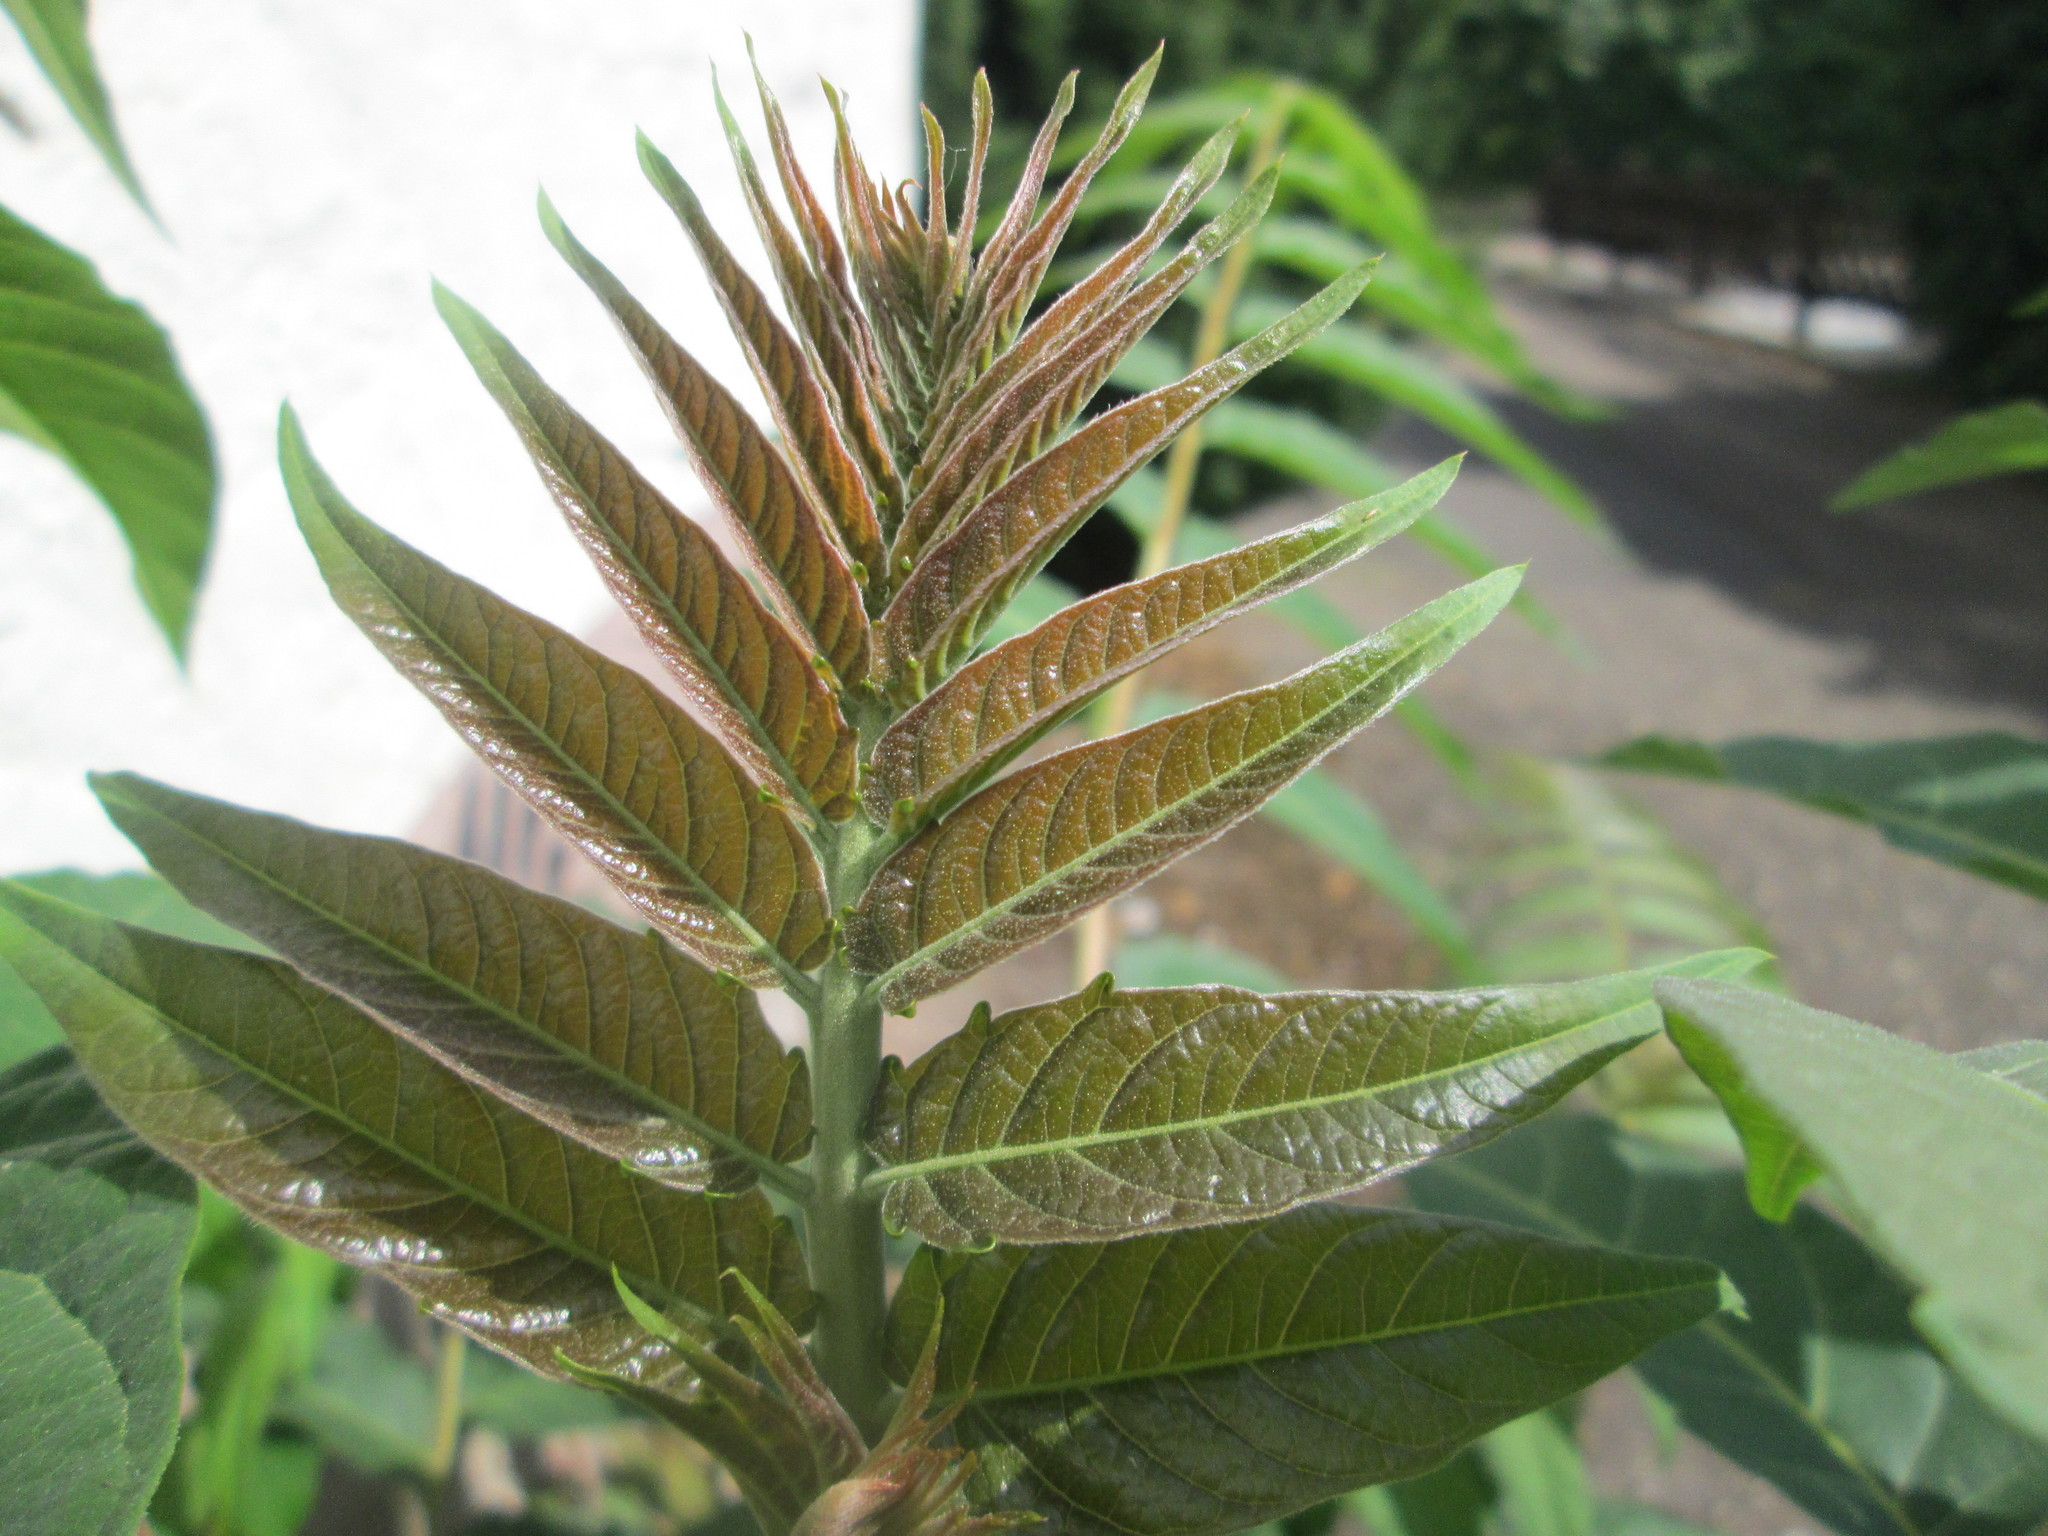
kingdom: Plantae
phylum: Tracheophyta
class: Magnoliopsida
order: Sapindales
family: Simaroubaceae
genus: Ailanthus
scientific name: Ailanthus altissima
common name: Tree-of-heaven
